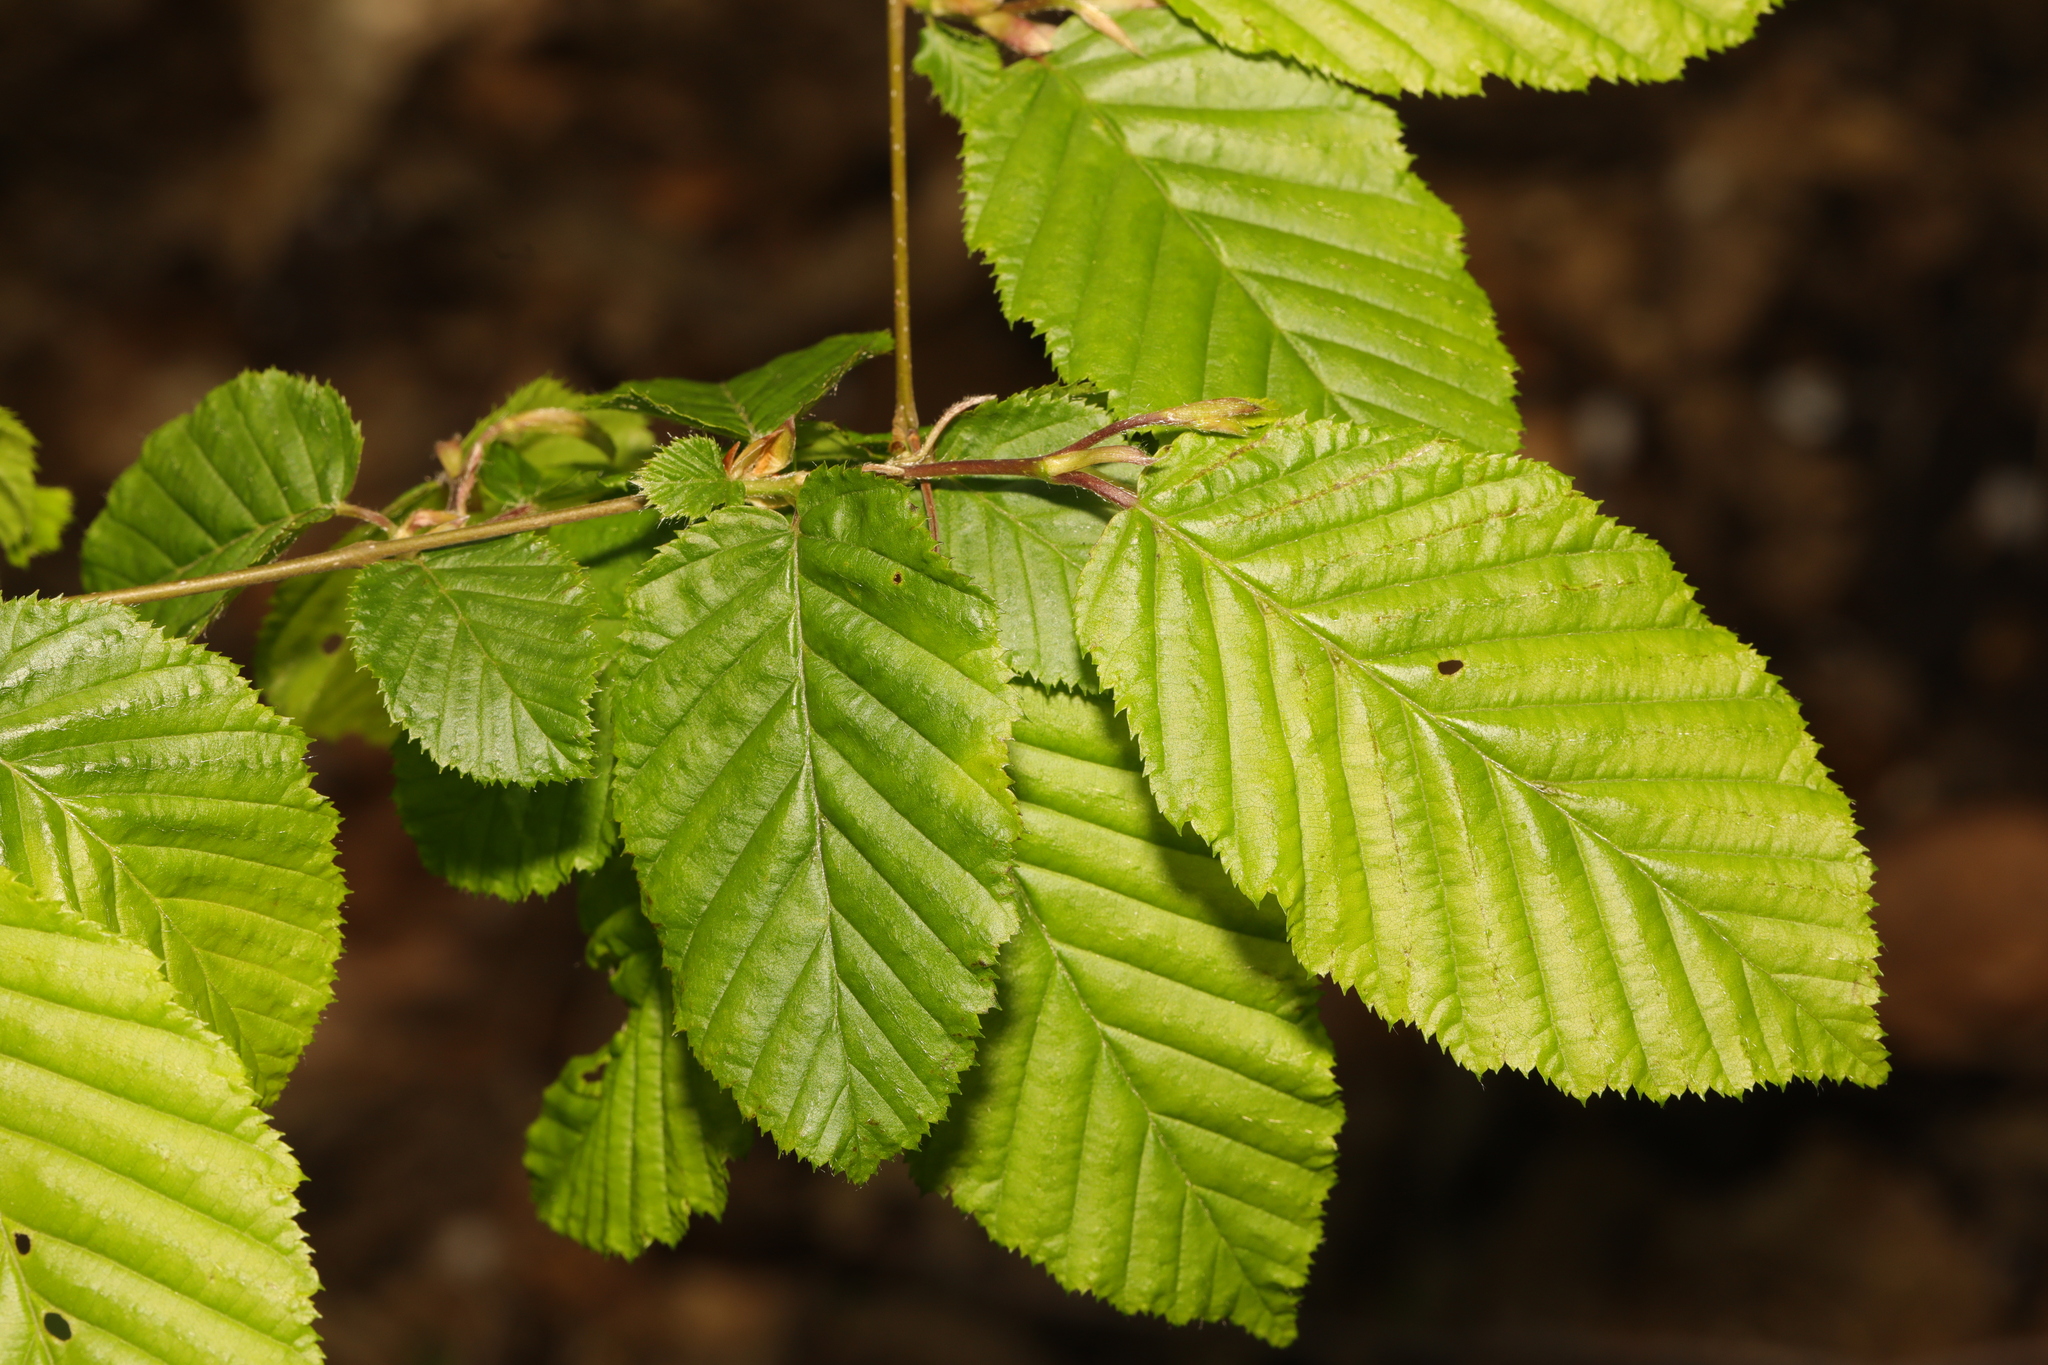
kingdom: Plantae
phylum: Tracheophyta
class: Magnoliopsida
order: Fagales
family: Betulaceae
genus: Carpinus
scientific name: Carpinus betulus
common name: Hornbeam
